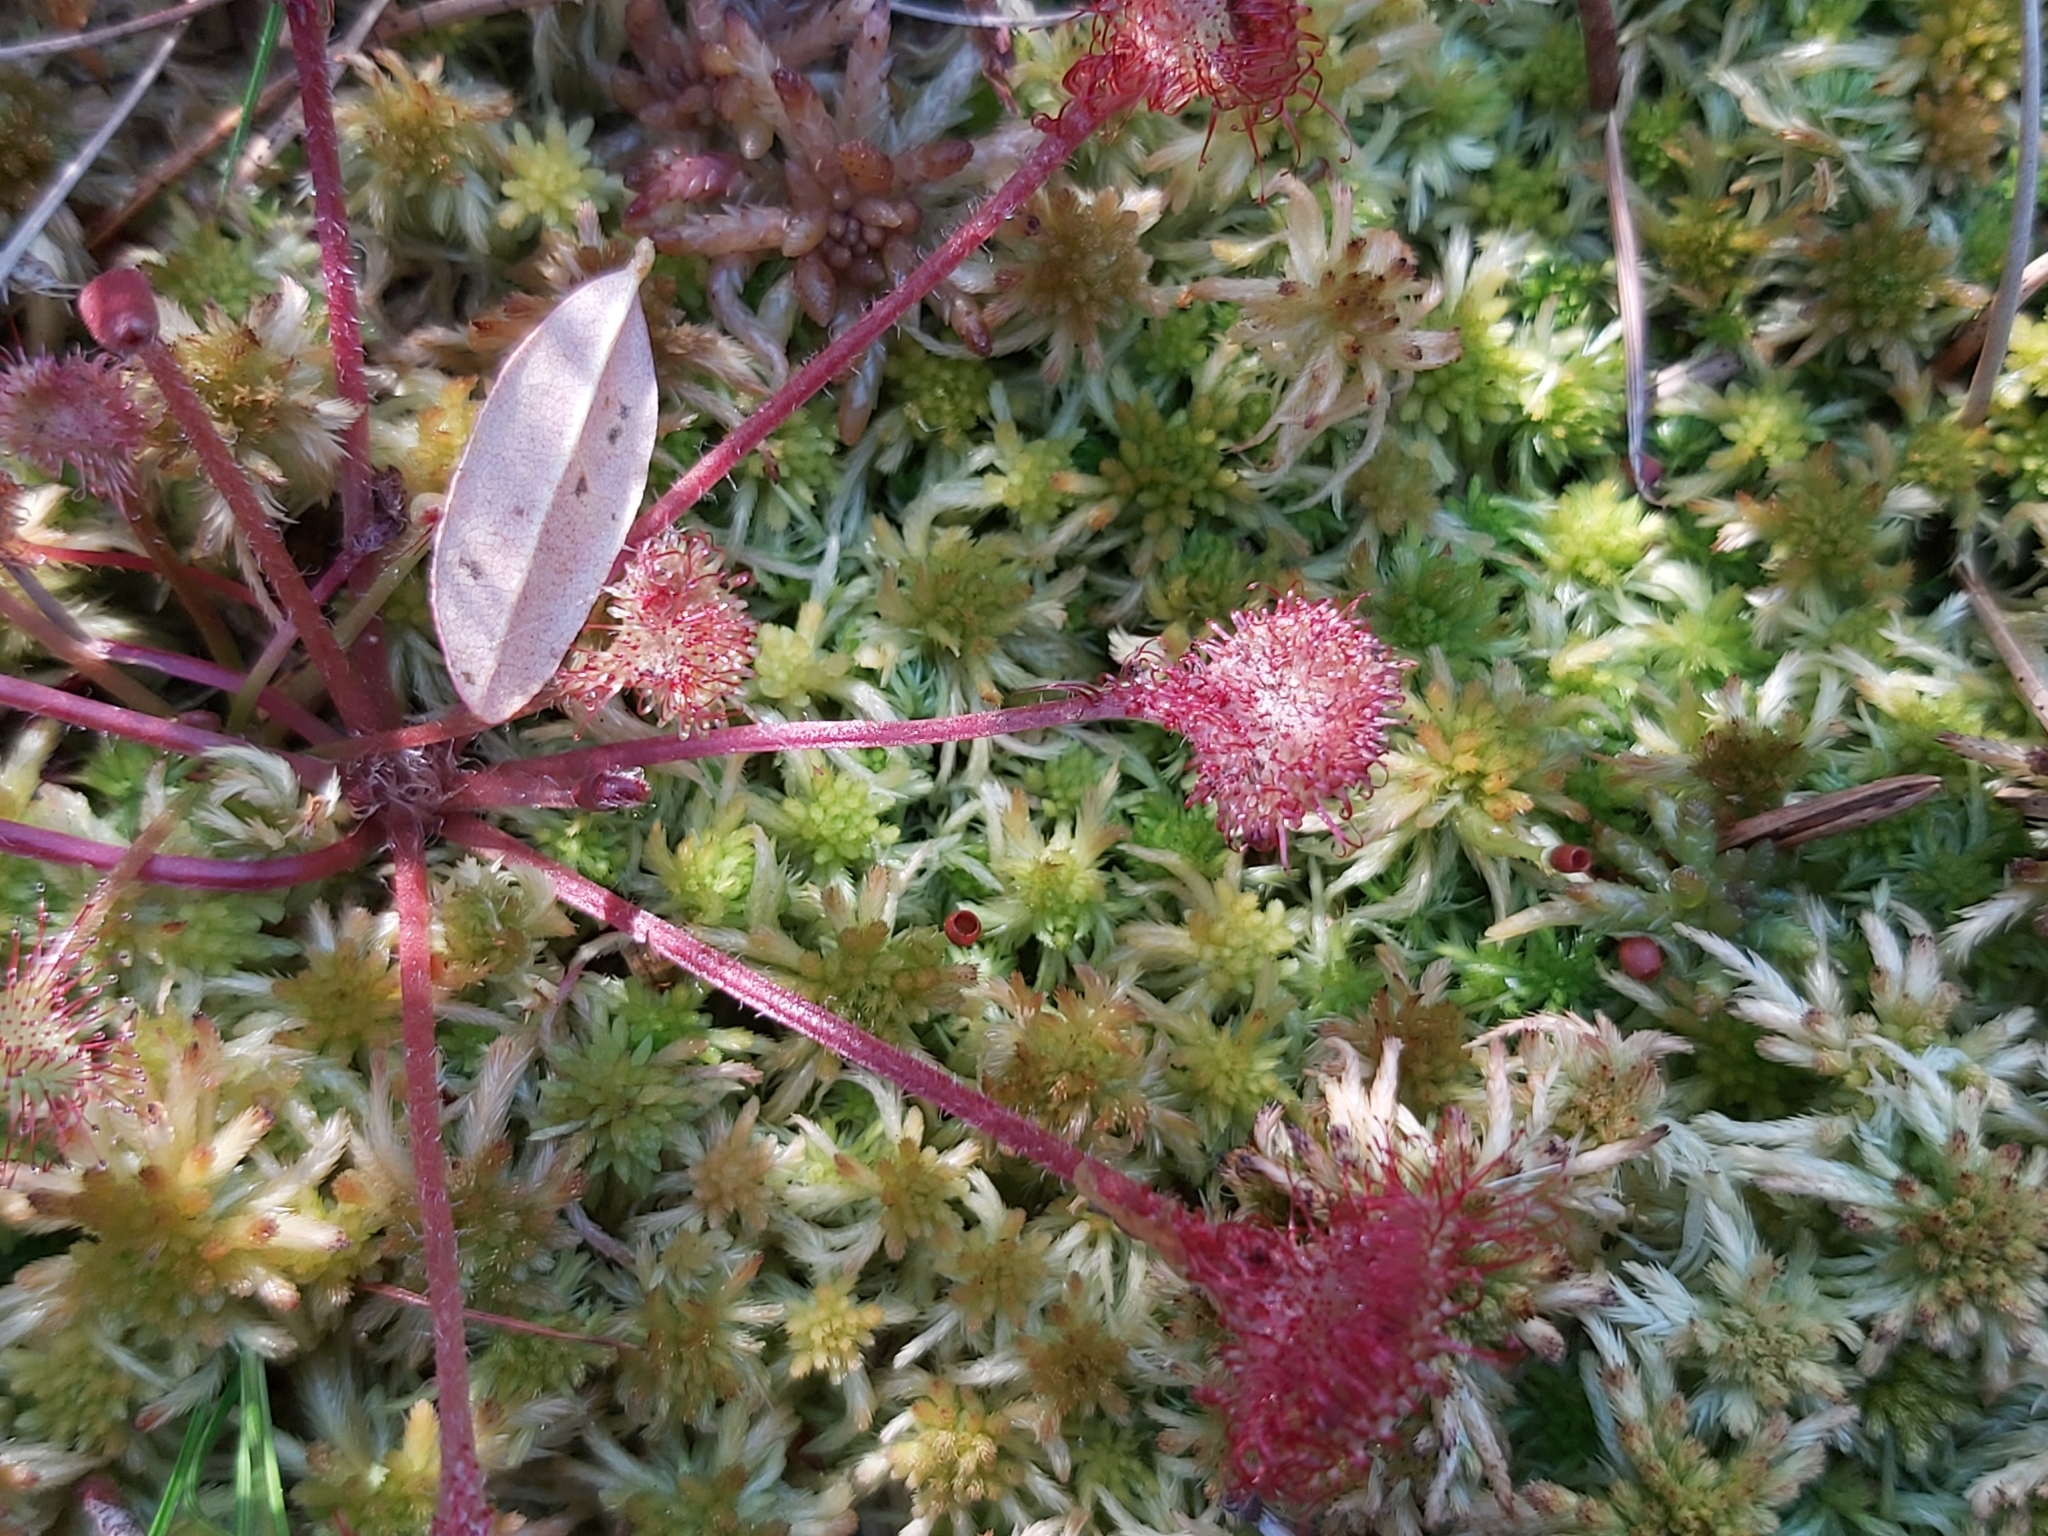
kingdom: Plantae
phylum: Tracheophyta
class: Magnoliopsida
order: Caryophyllales
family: Droseraceae
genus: Drosera
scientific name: Drosera rotundifolia
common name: Round-leaved sundew
